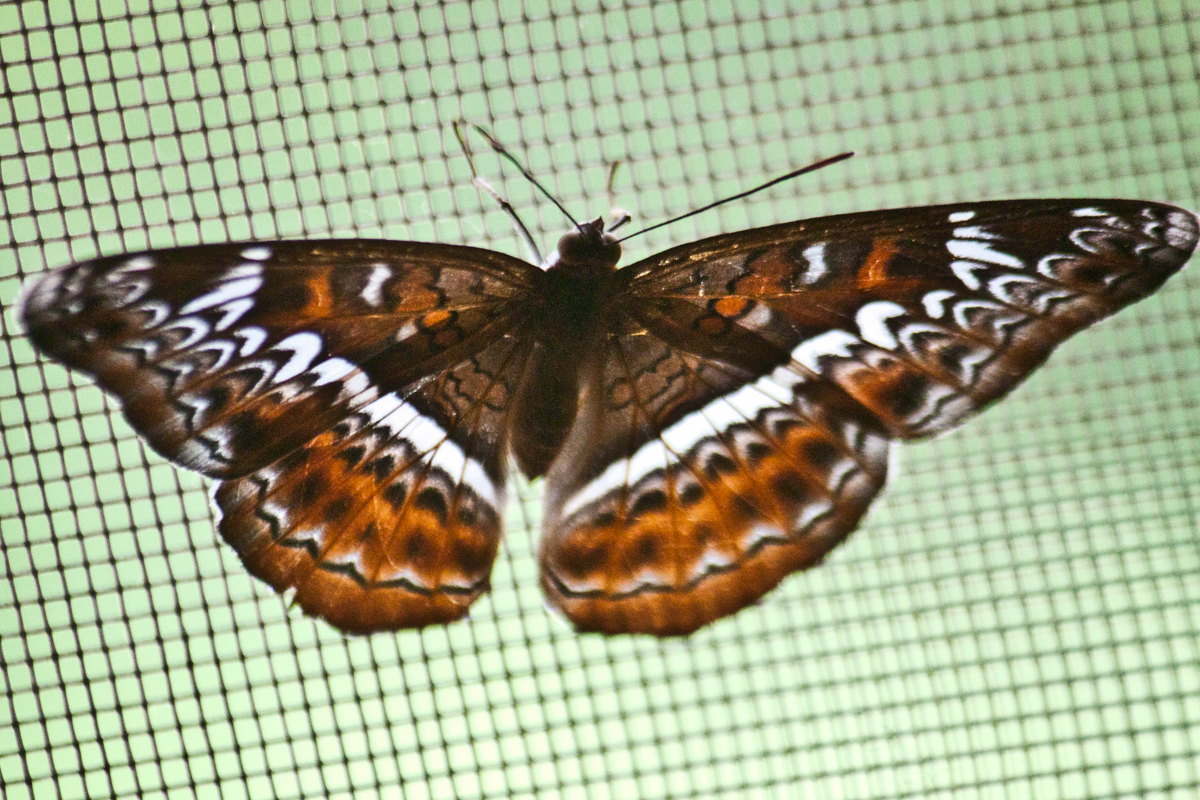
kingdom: Animalia
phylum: Arthropoda
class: Insecta
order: Lepidoptera
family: Nymphalidae
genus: Lebadea
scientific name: Lebadea martha
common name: Knight
